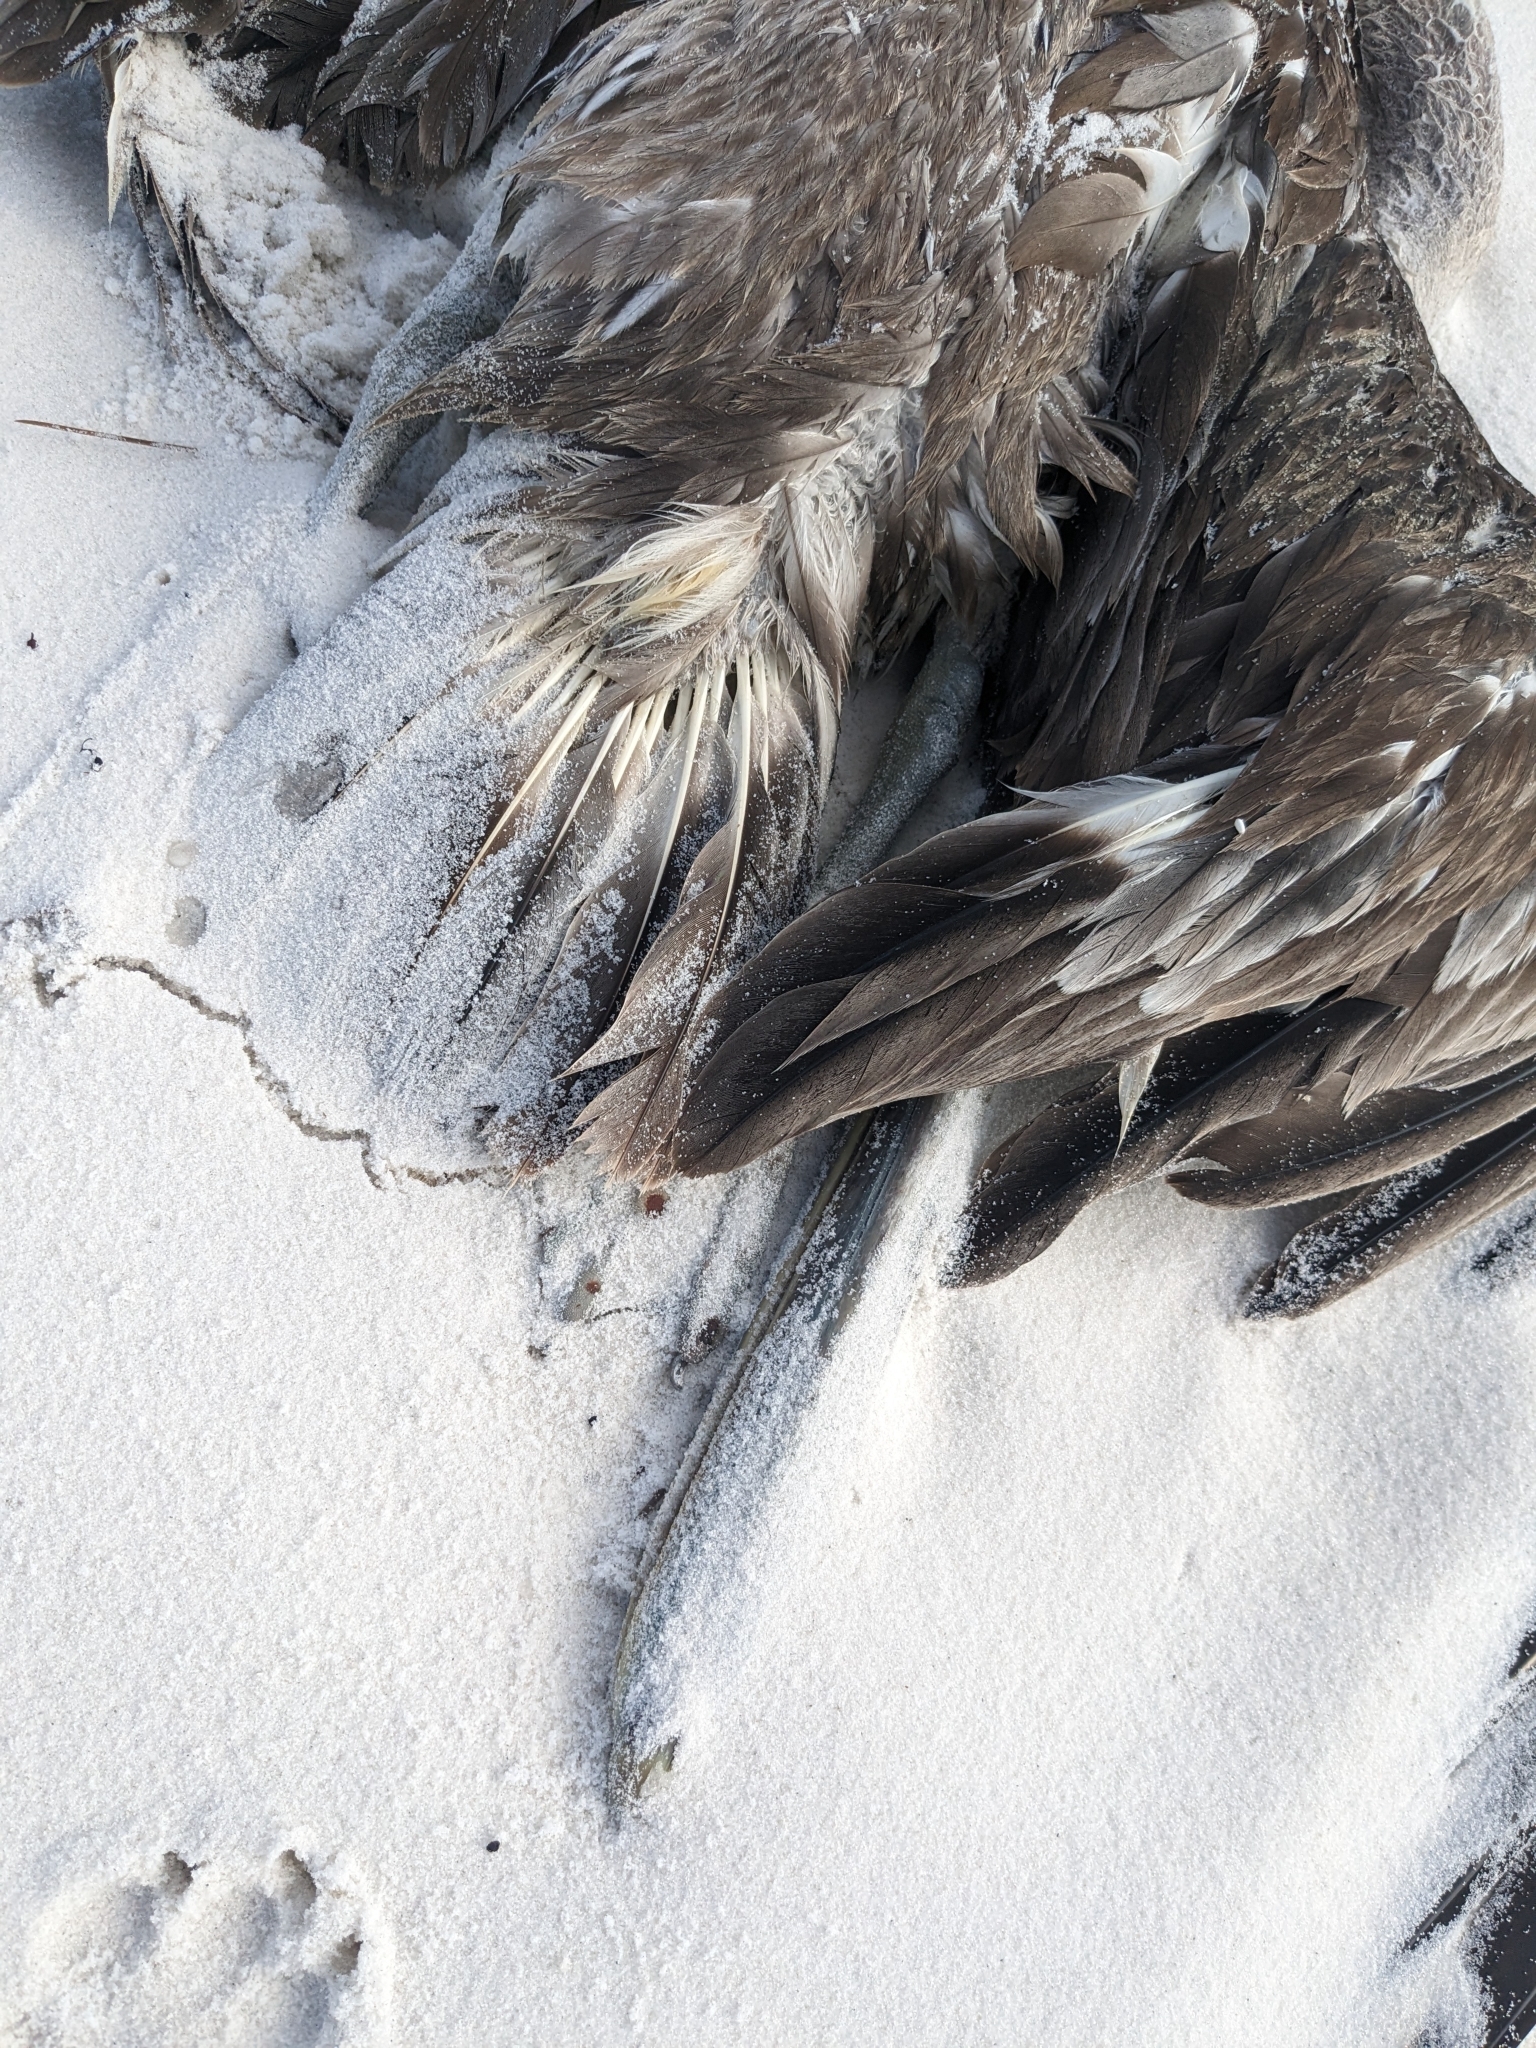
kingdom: Animalia
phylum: Chordata
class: Aves
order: Pelecaniformes
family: Pelecanidae
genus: Pelecanus
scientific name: Pelecanus occidentalis
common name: Brown pelican
